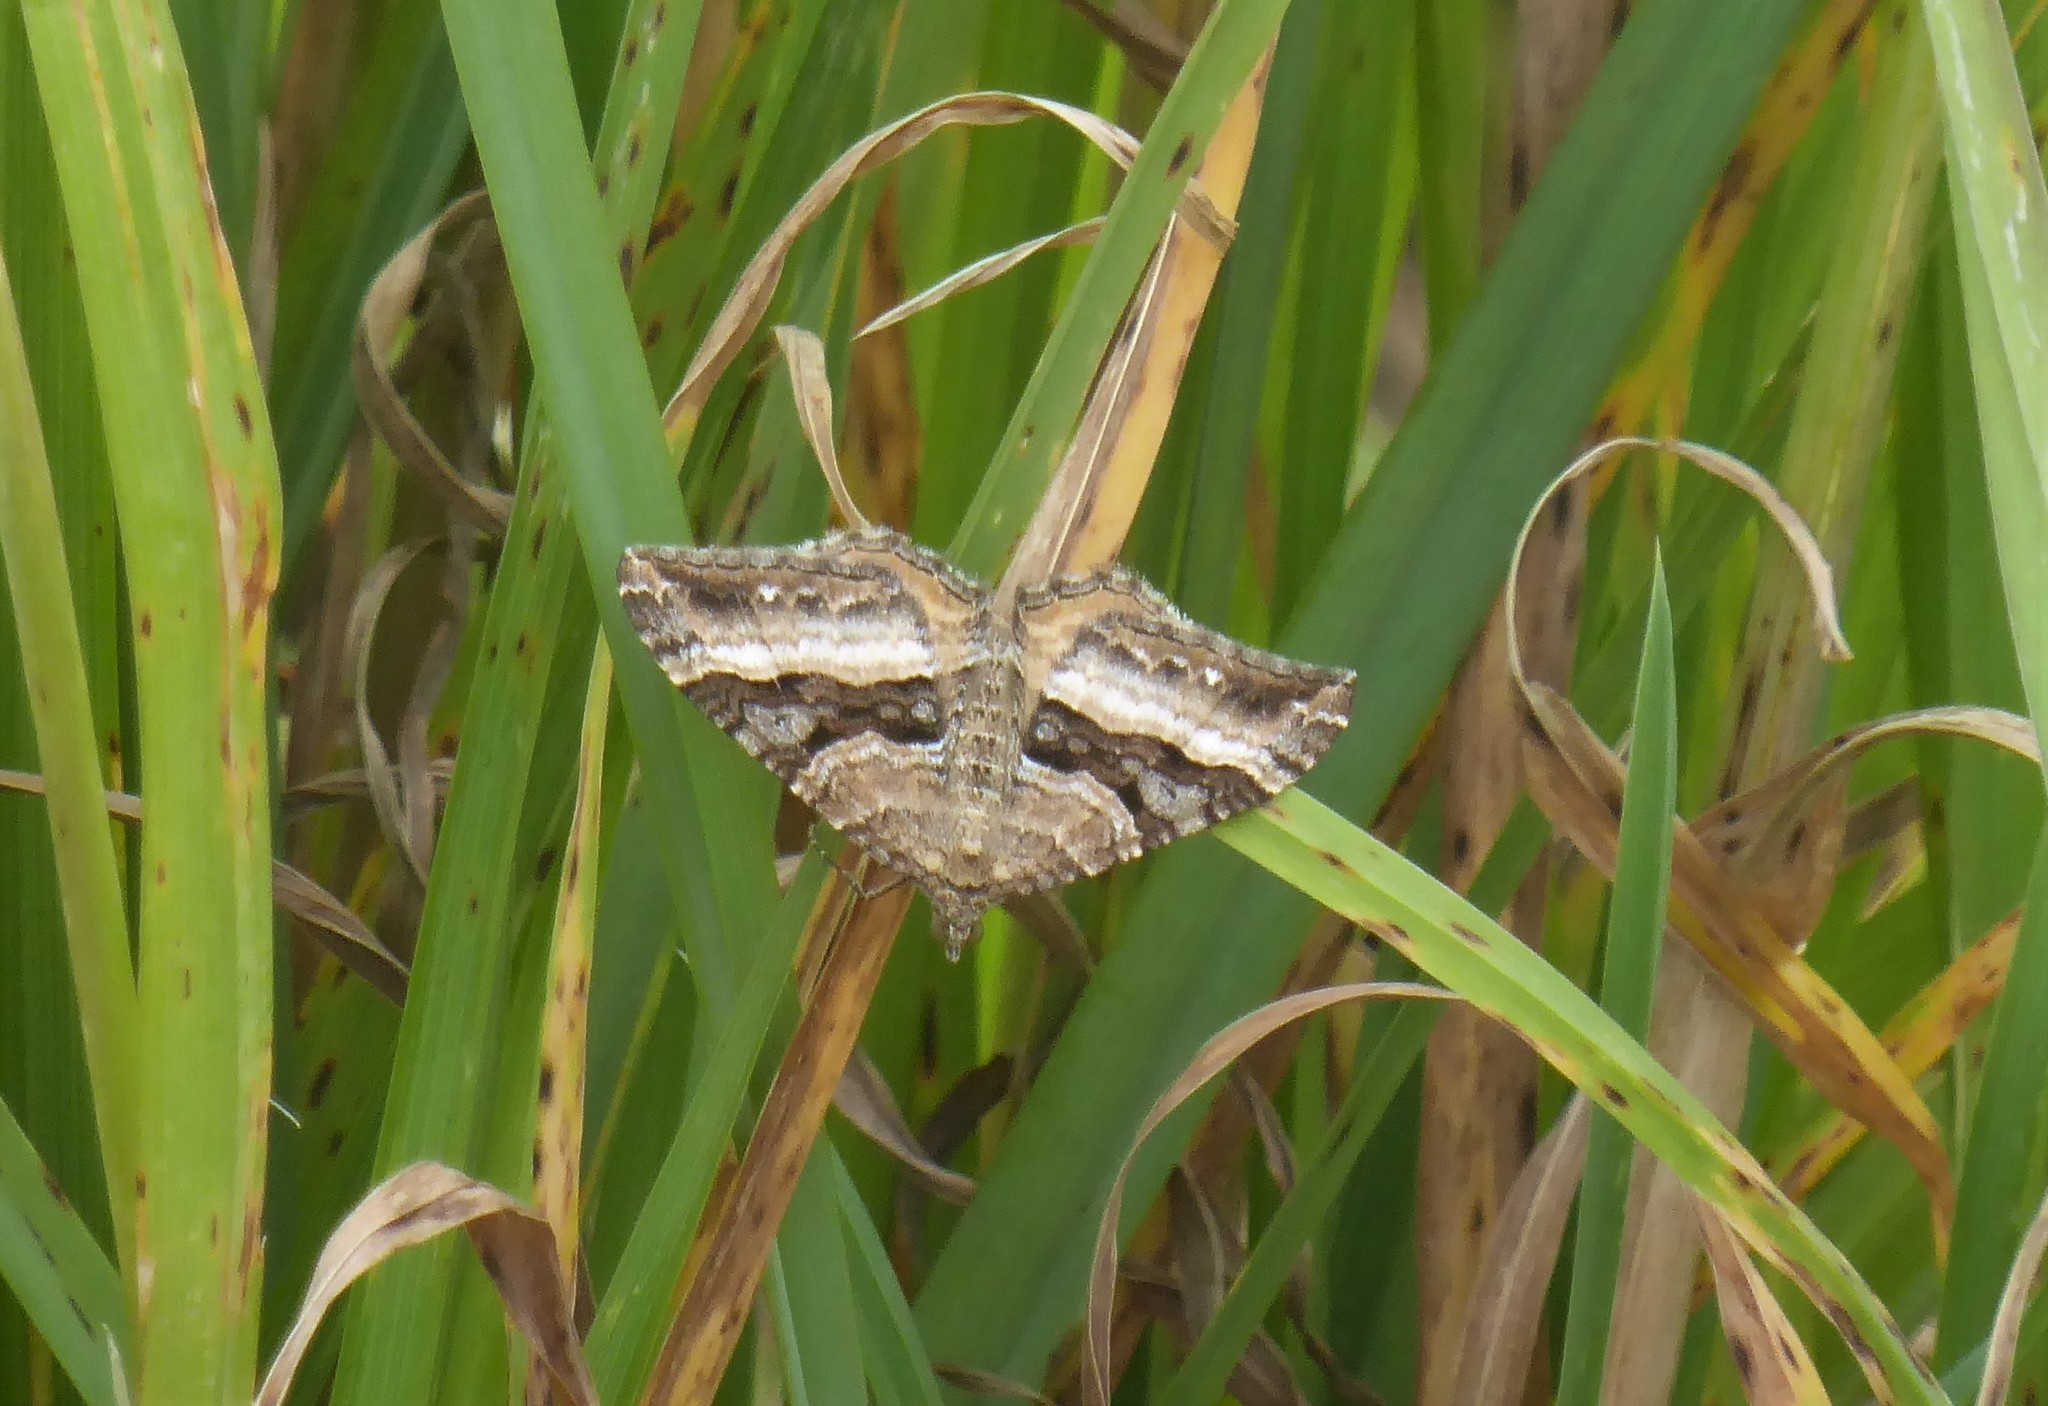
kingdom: Animalia
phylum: Arthropoda
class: Insecta
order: Lepidoptera
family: Geometridae
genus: Hydriomena
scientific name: Hydriomena deltoidata
